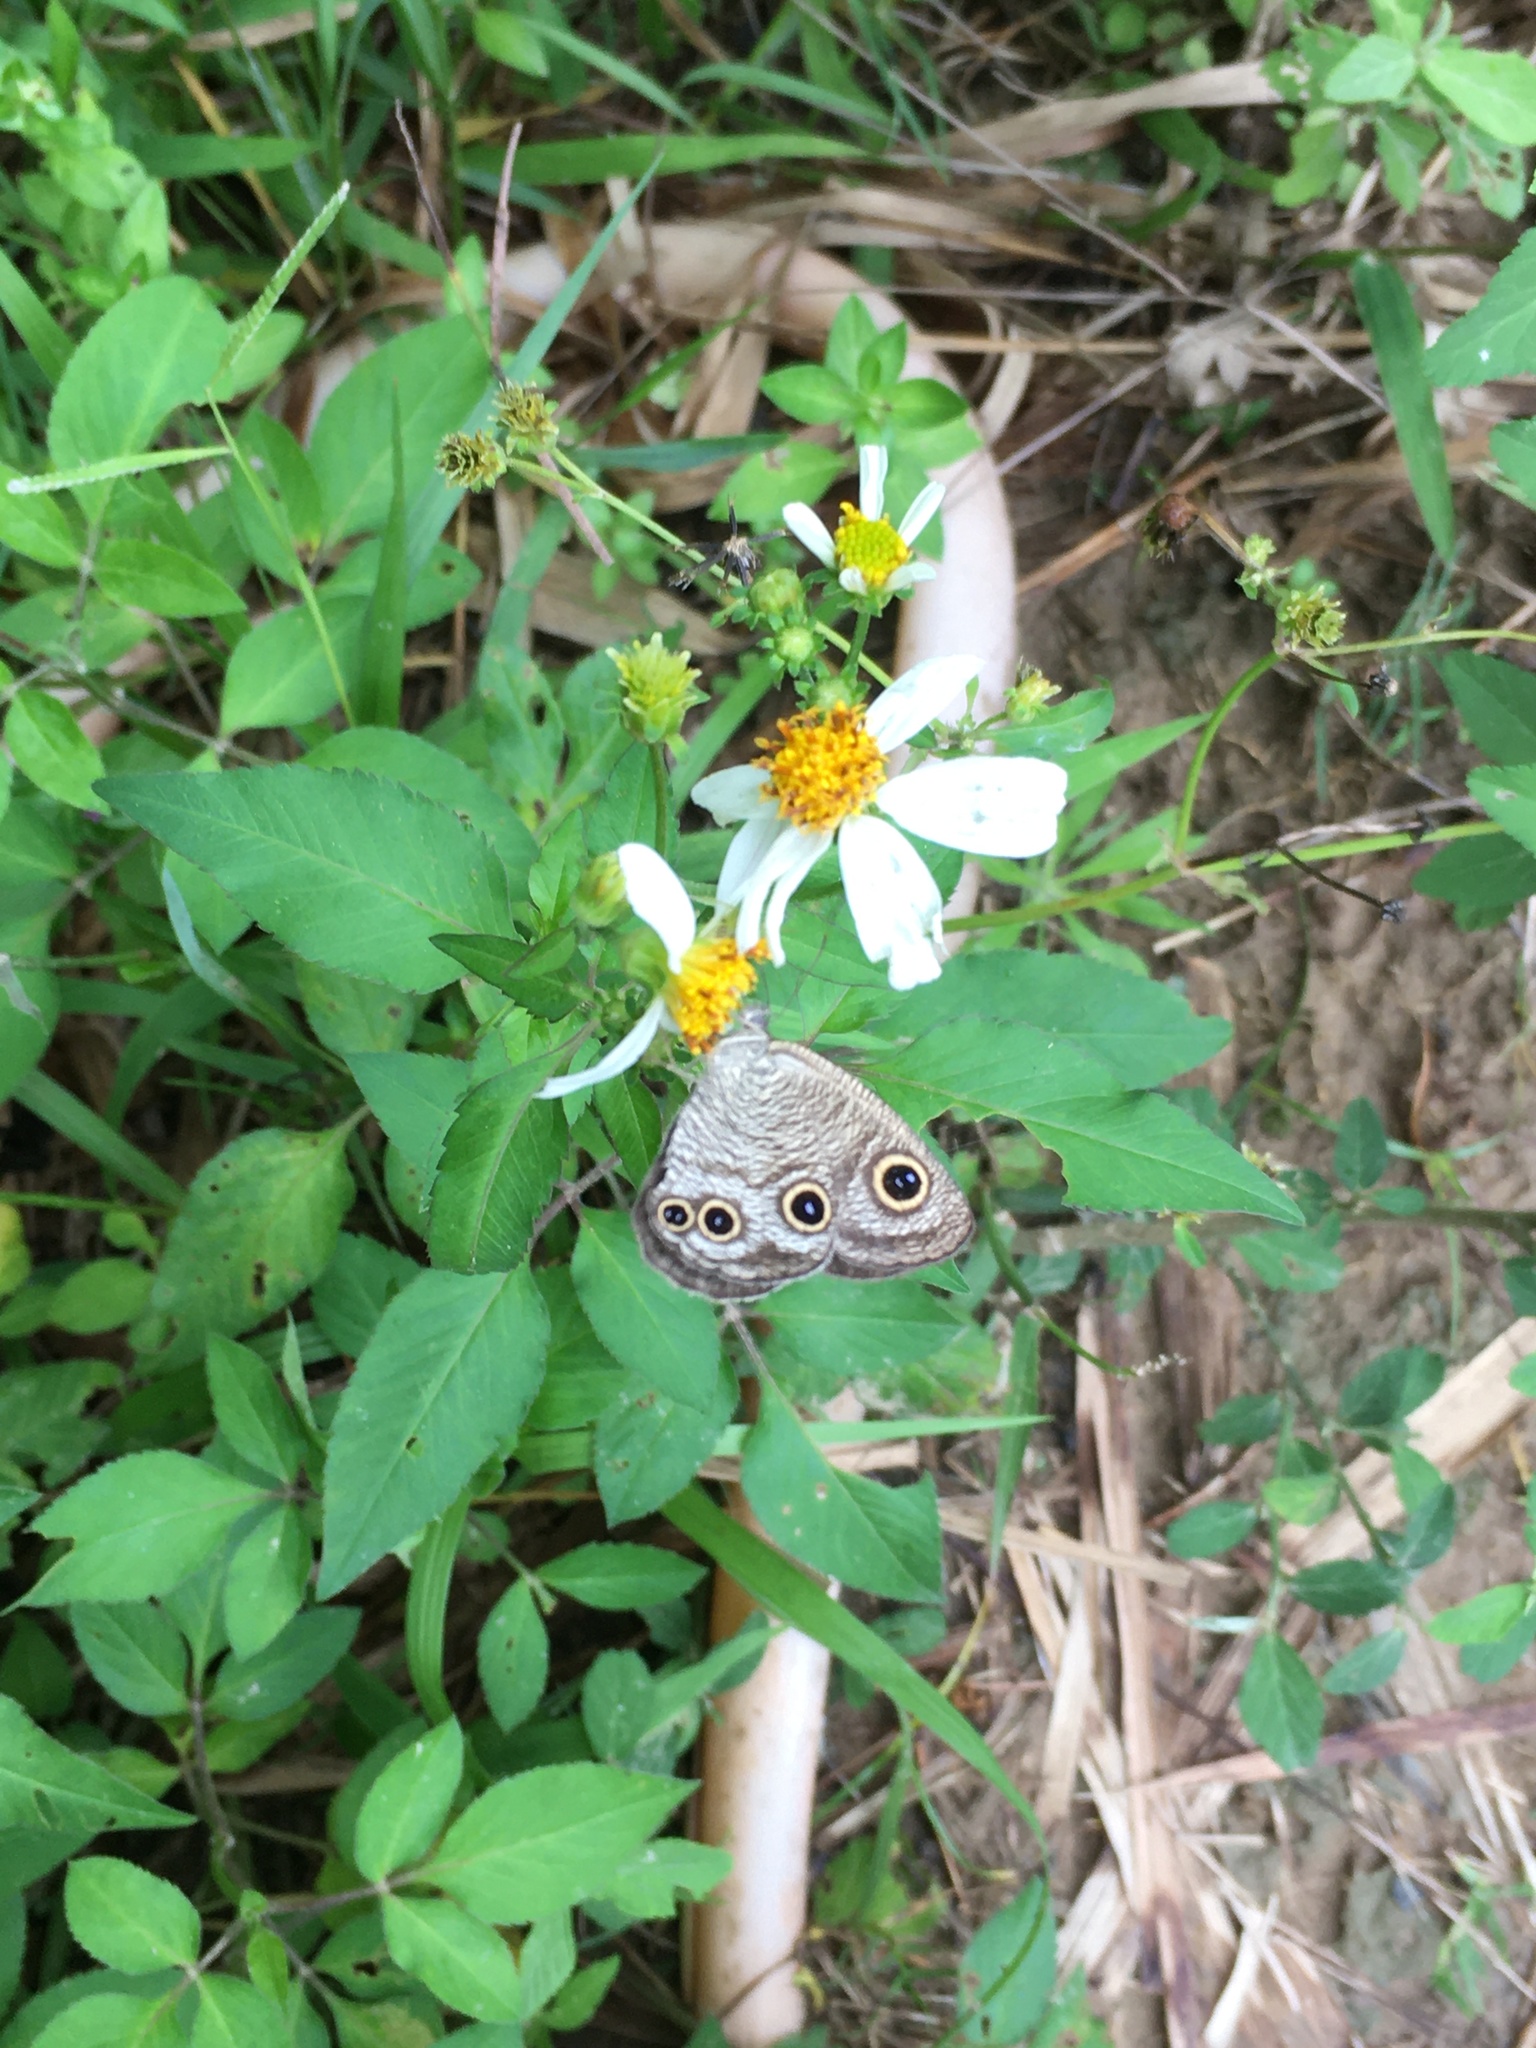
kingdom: Animalia
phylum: Arthropoda
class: Insecta
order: Lepidoptera
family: Nymphalidae
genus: Ypthima
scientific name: Ypthima multistriata
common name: Striated ringlet
